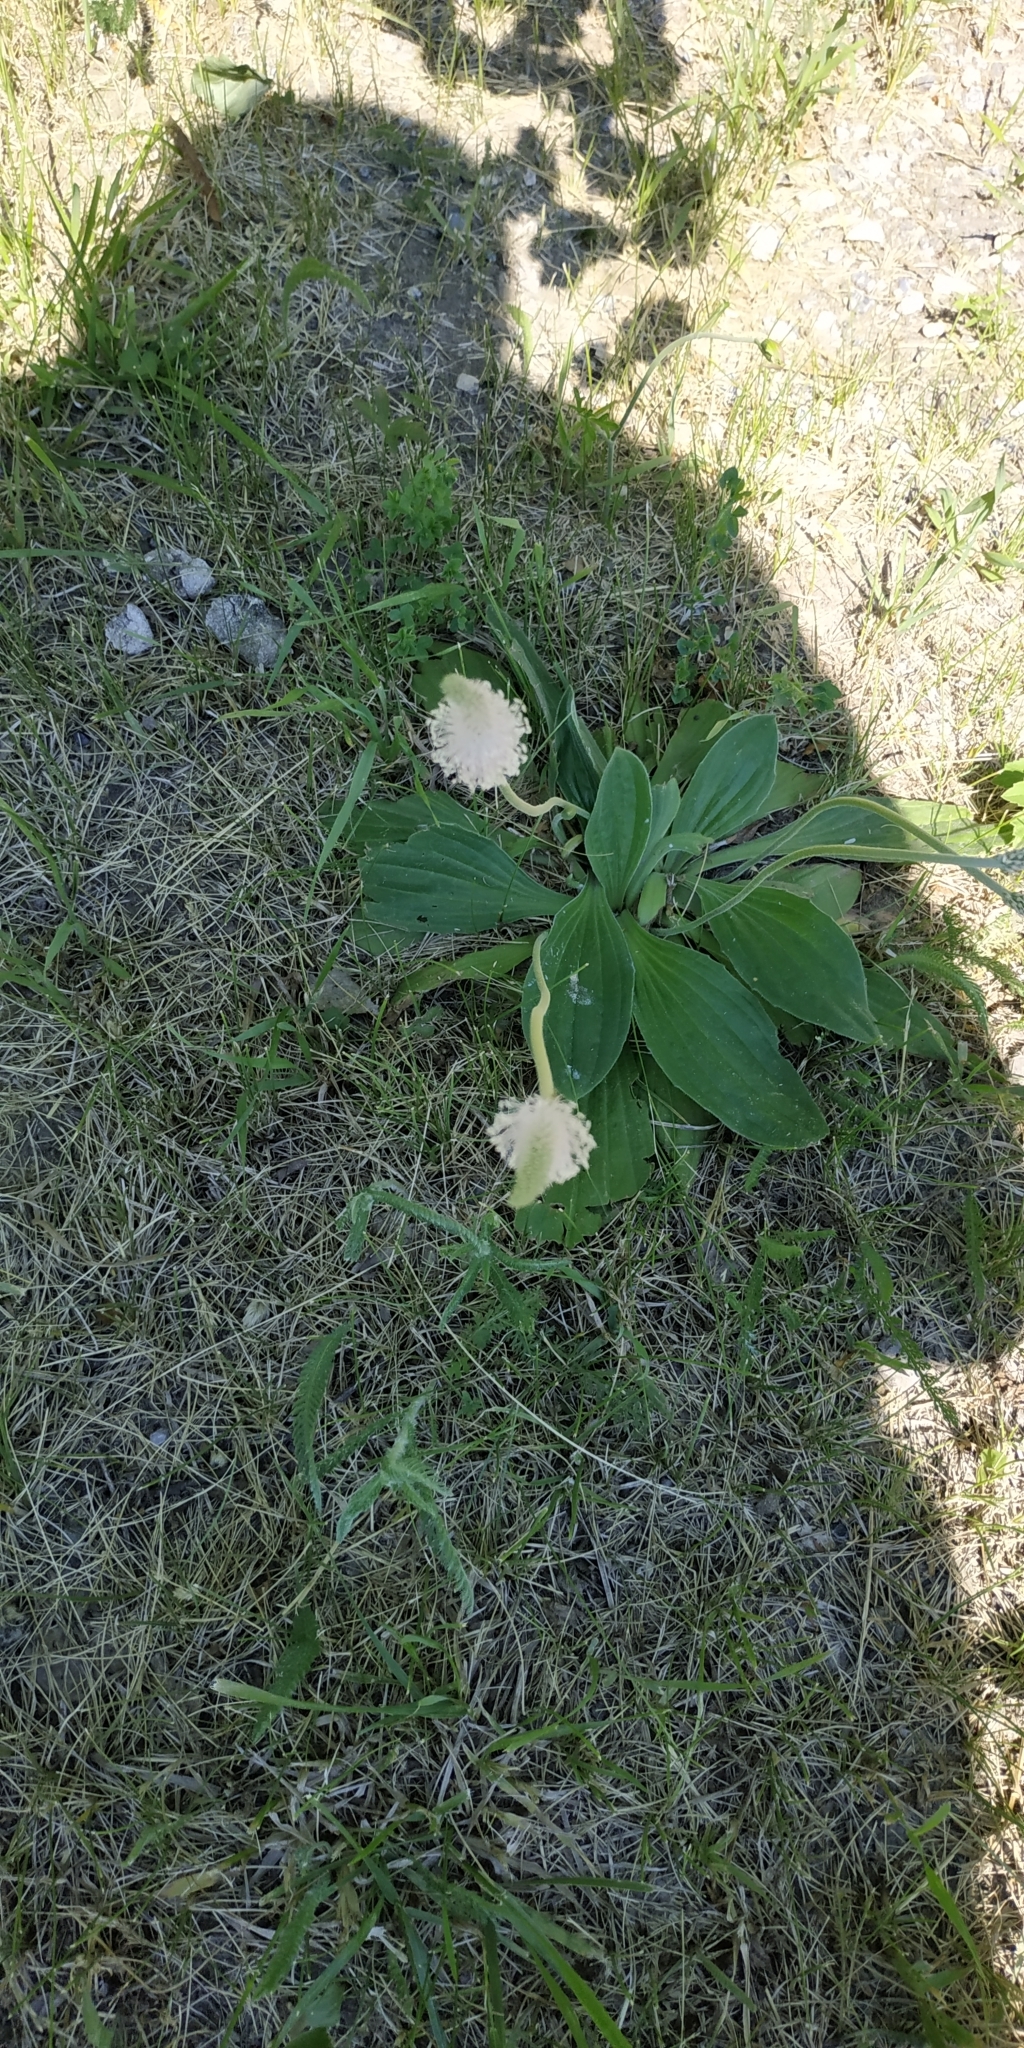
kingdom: Plantae
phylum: Tracheophyta
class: Magnoliopsida
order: Lamiales
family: Plantaginaceae
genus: Plantago
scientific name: Plantago media
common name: Hoary plantain
